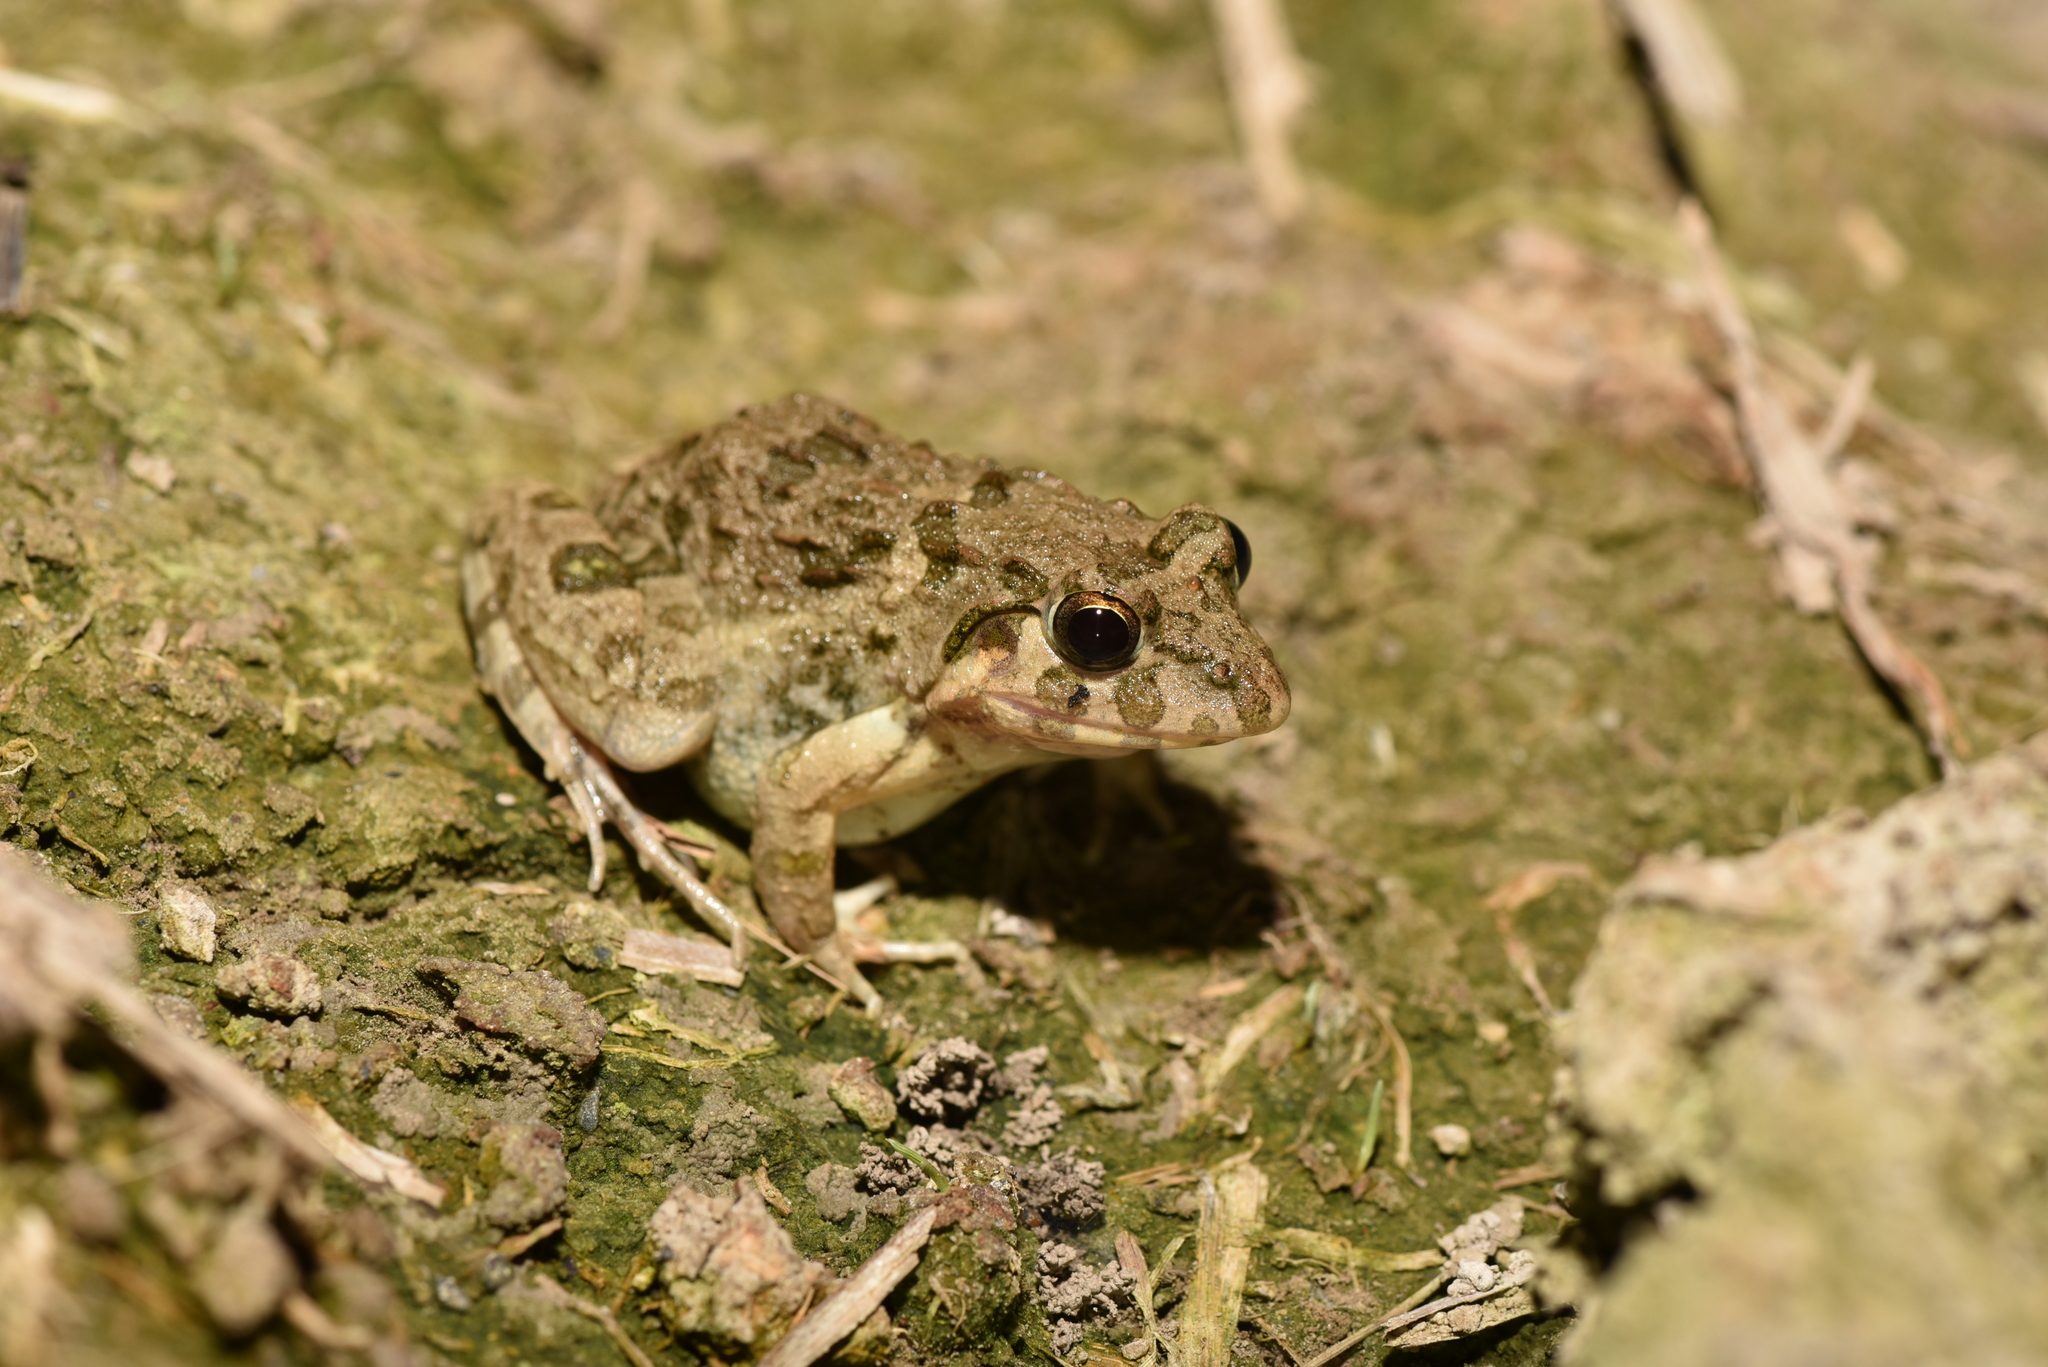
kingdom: Animalia
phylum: Chordata
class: Amphibia
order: Anura
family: Dicroglossidae
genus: Fejervarya
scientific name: Fejervarya limnocharis
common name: Asian grass frog/common pond frog/field frog/grass frog/indian rice frog
